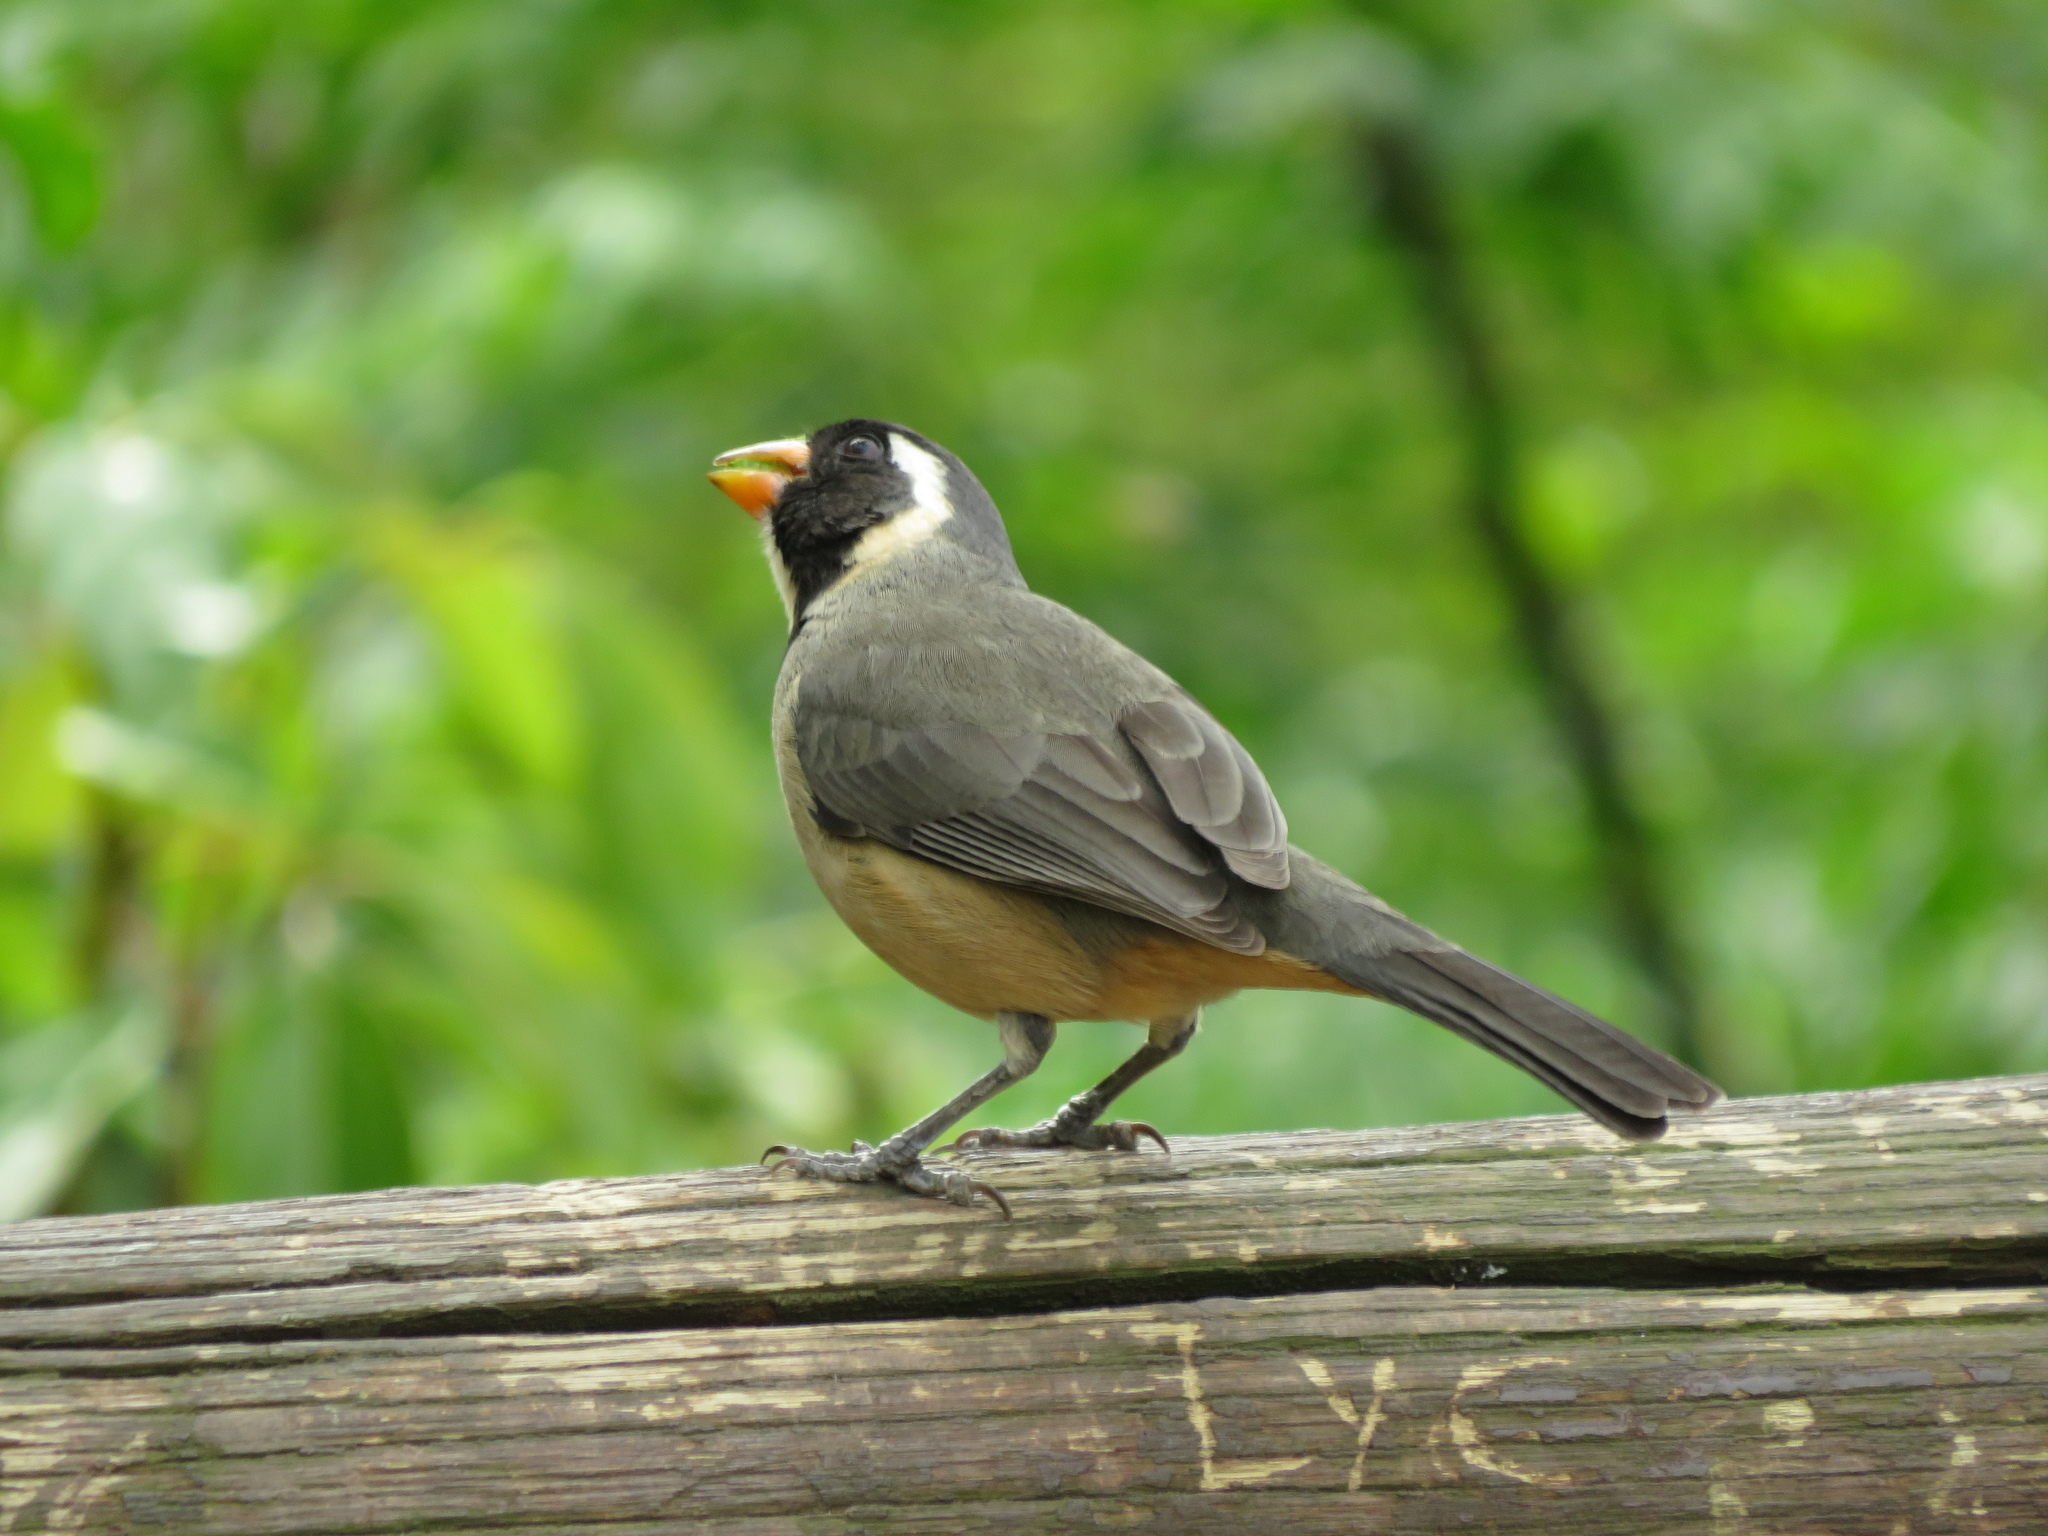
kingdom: Animalia
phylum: Chordata
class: Aves
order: Passeriformes
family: Thraupidae
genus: Saltator
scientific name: Saltator aurantiirostris
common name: Golden-billed saltator
